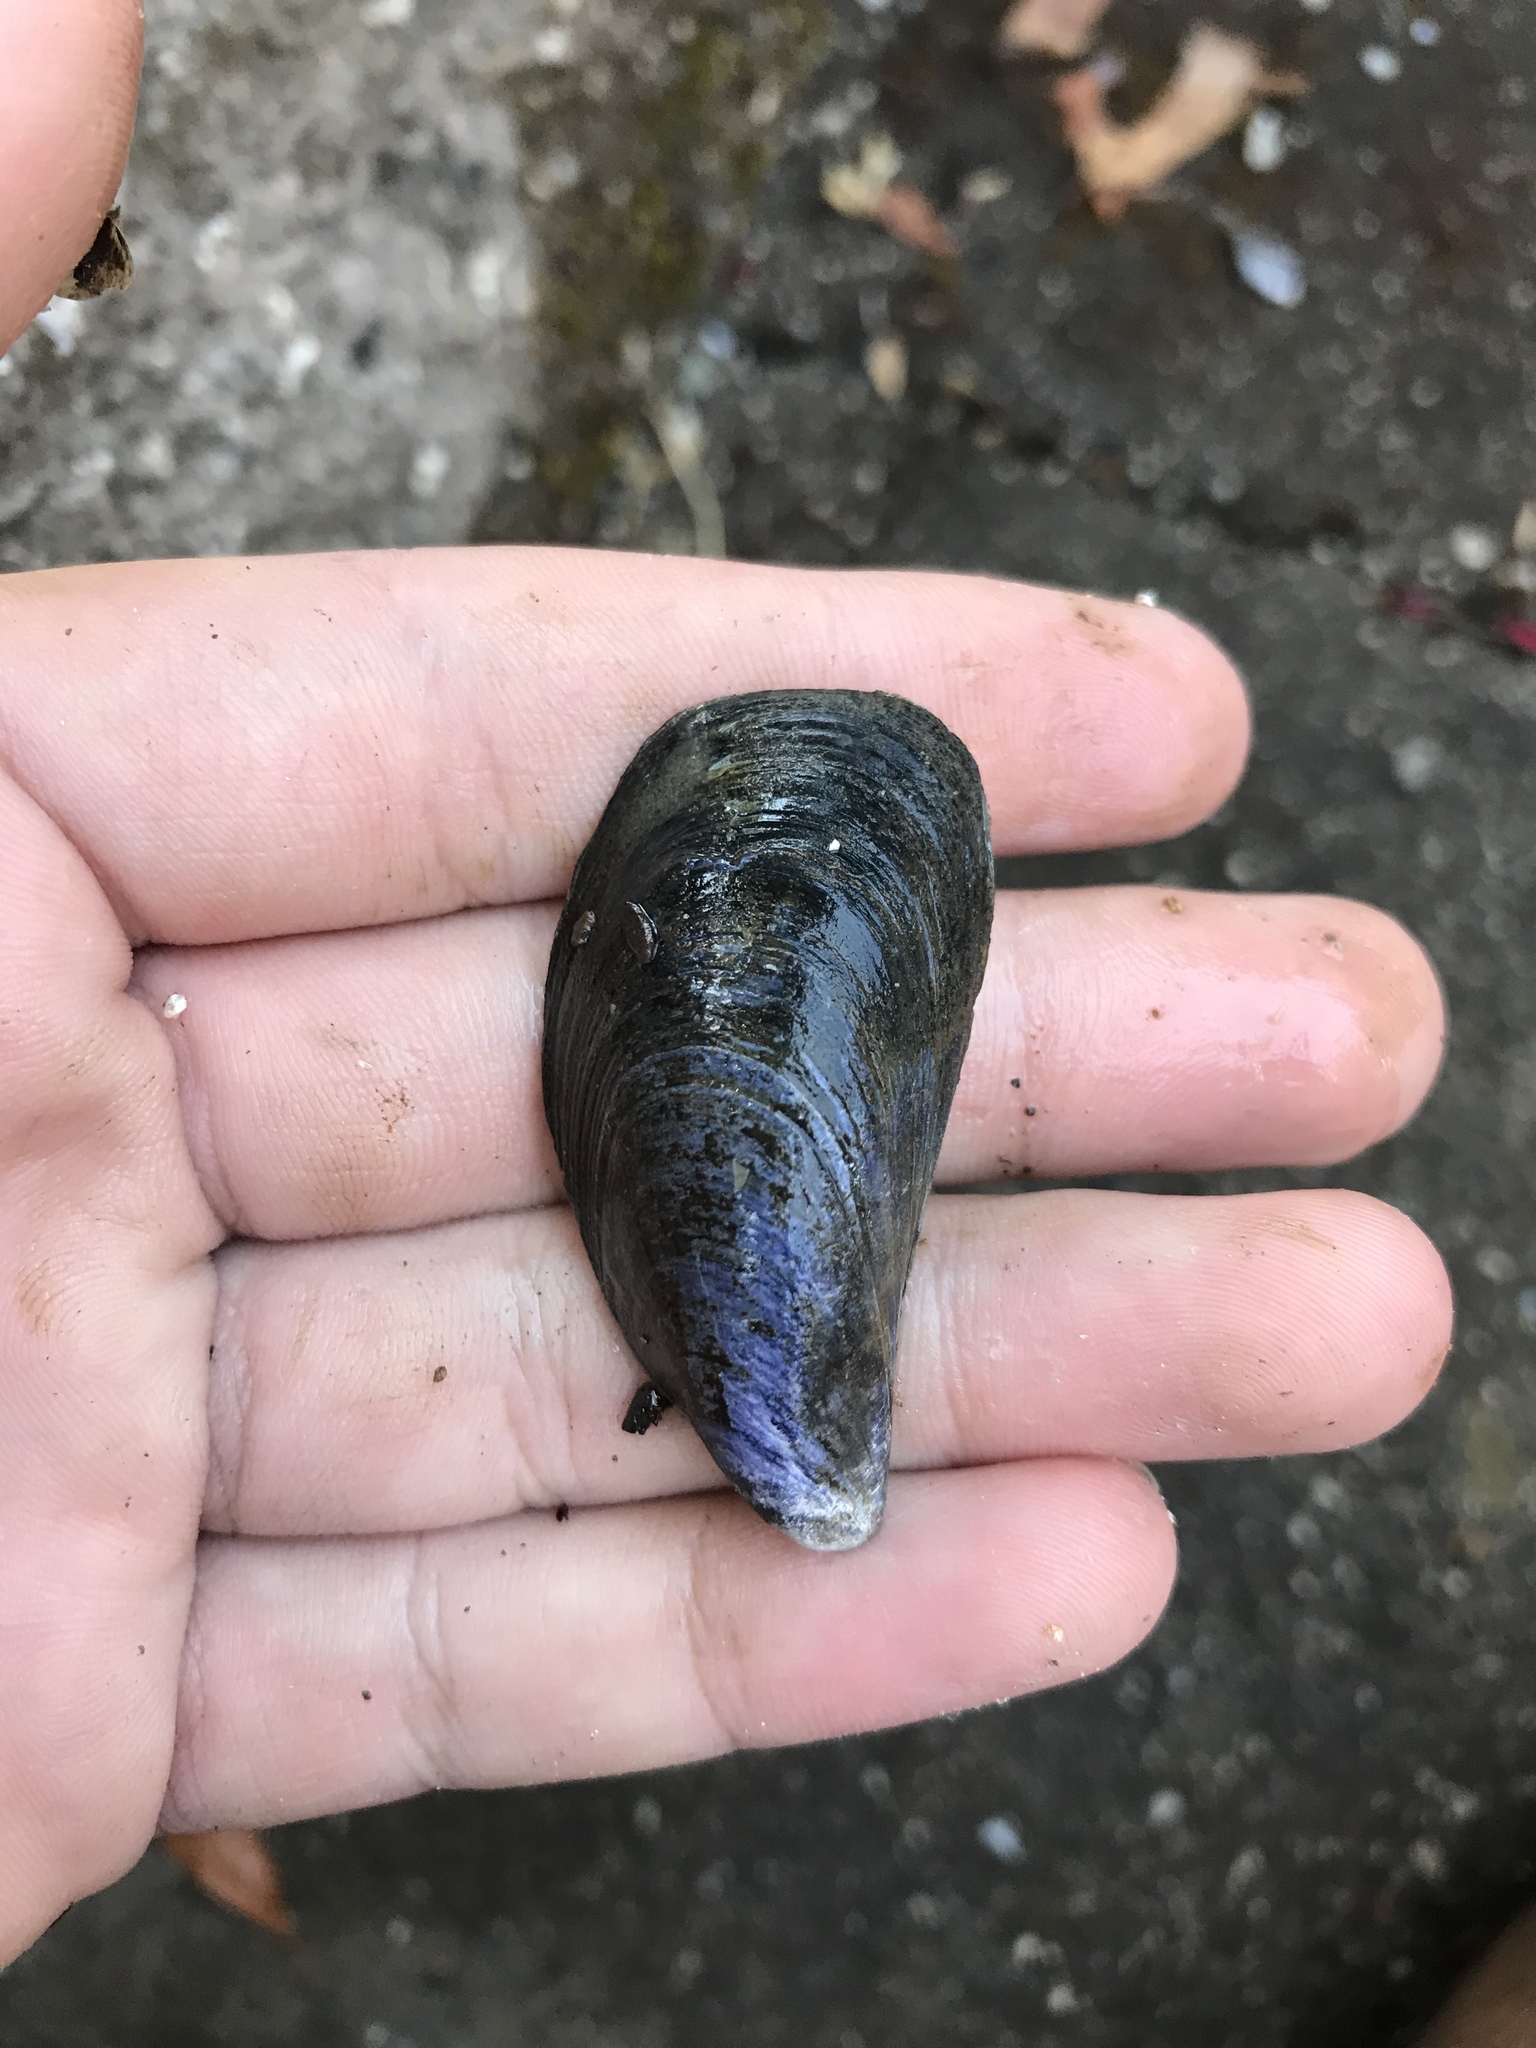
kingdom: Animalia
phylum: Mollusca
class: Bivalvia
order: Mytilida
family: Mytilidae
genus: Mytilus
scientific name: Mytilus
